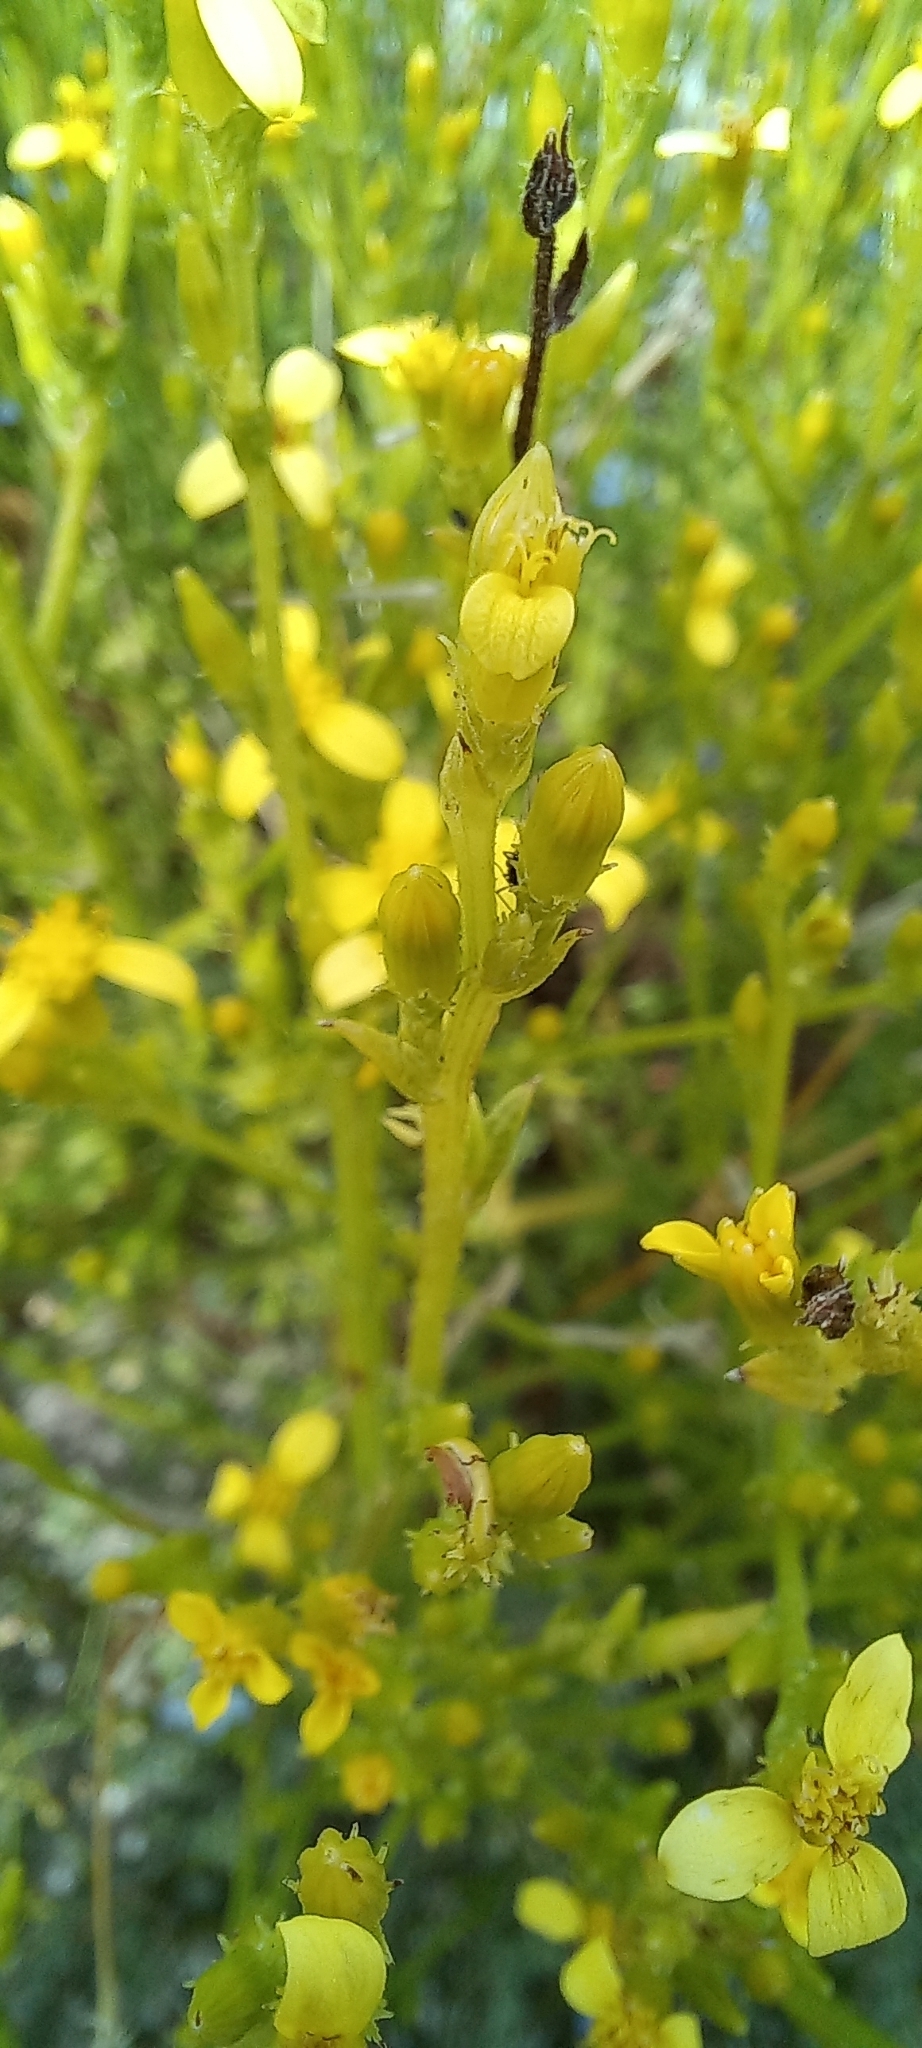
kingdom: Plantae
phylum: Tracheophyta
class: Magnoliopsida
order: Asterales
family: Asteraceae
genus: Senecio
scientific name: Senecio pubigerus
